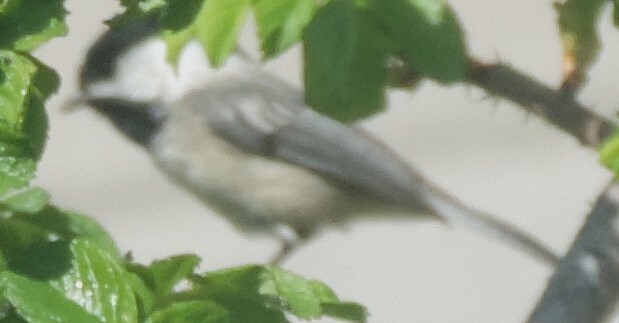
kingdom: Animalia
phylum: Chordata
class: Aves
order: Passeriformes
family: Paridae
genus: Poecile
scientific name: Poecile atricapillus
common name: Black-capped chickadee
